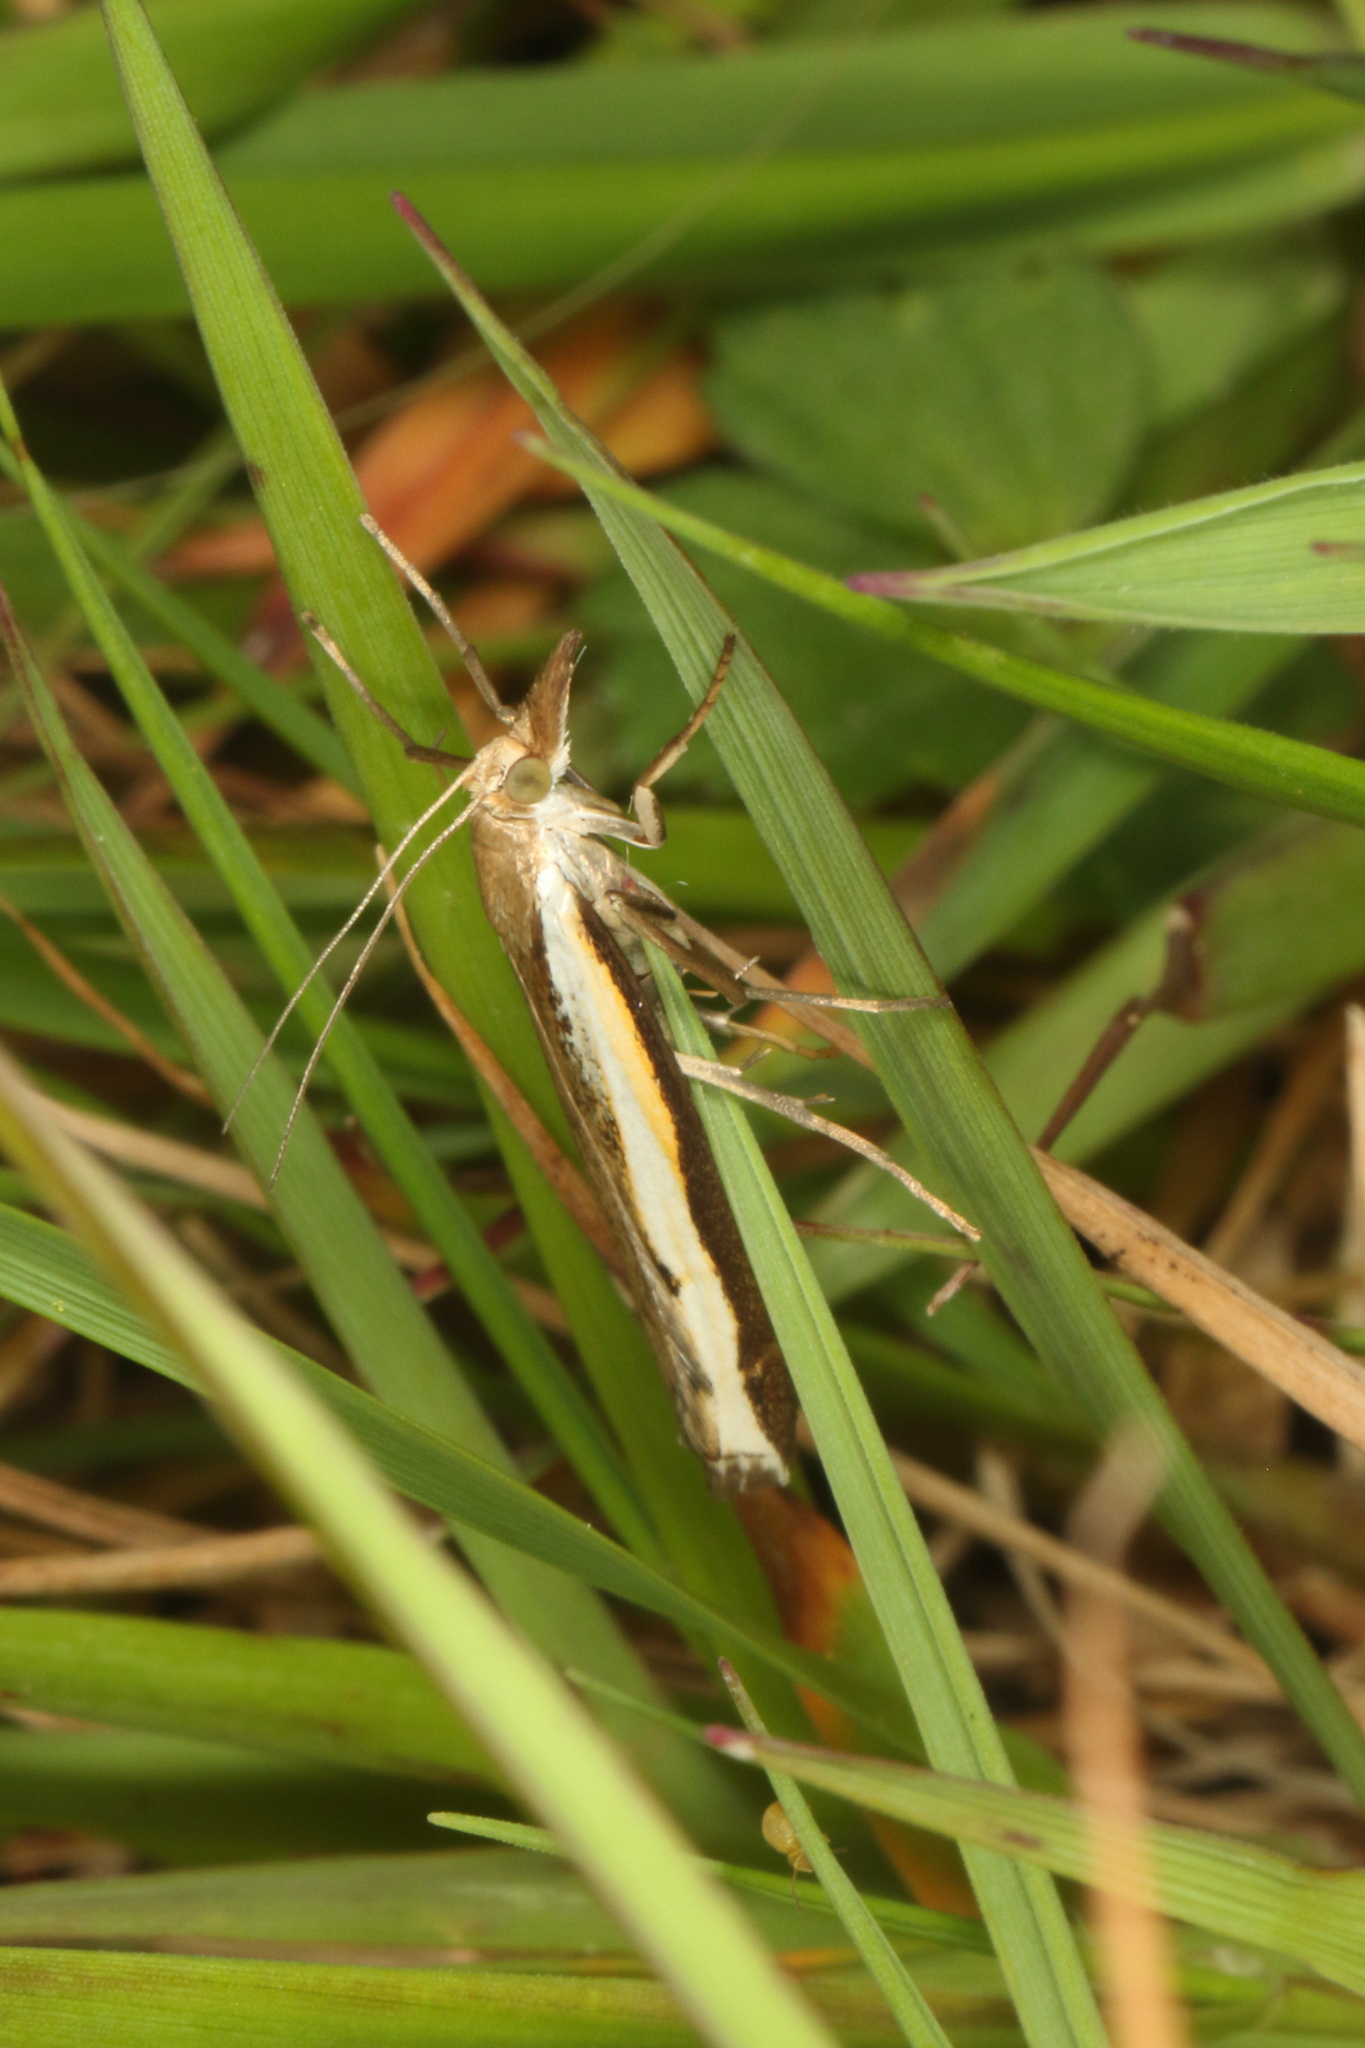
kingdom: Animalia
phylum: Arthropoda
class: Insecta
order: Lepidoptera
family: Crambidae
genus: Orocrambus
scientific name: Orocrambus flexuosellus
